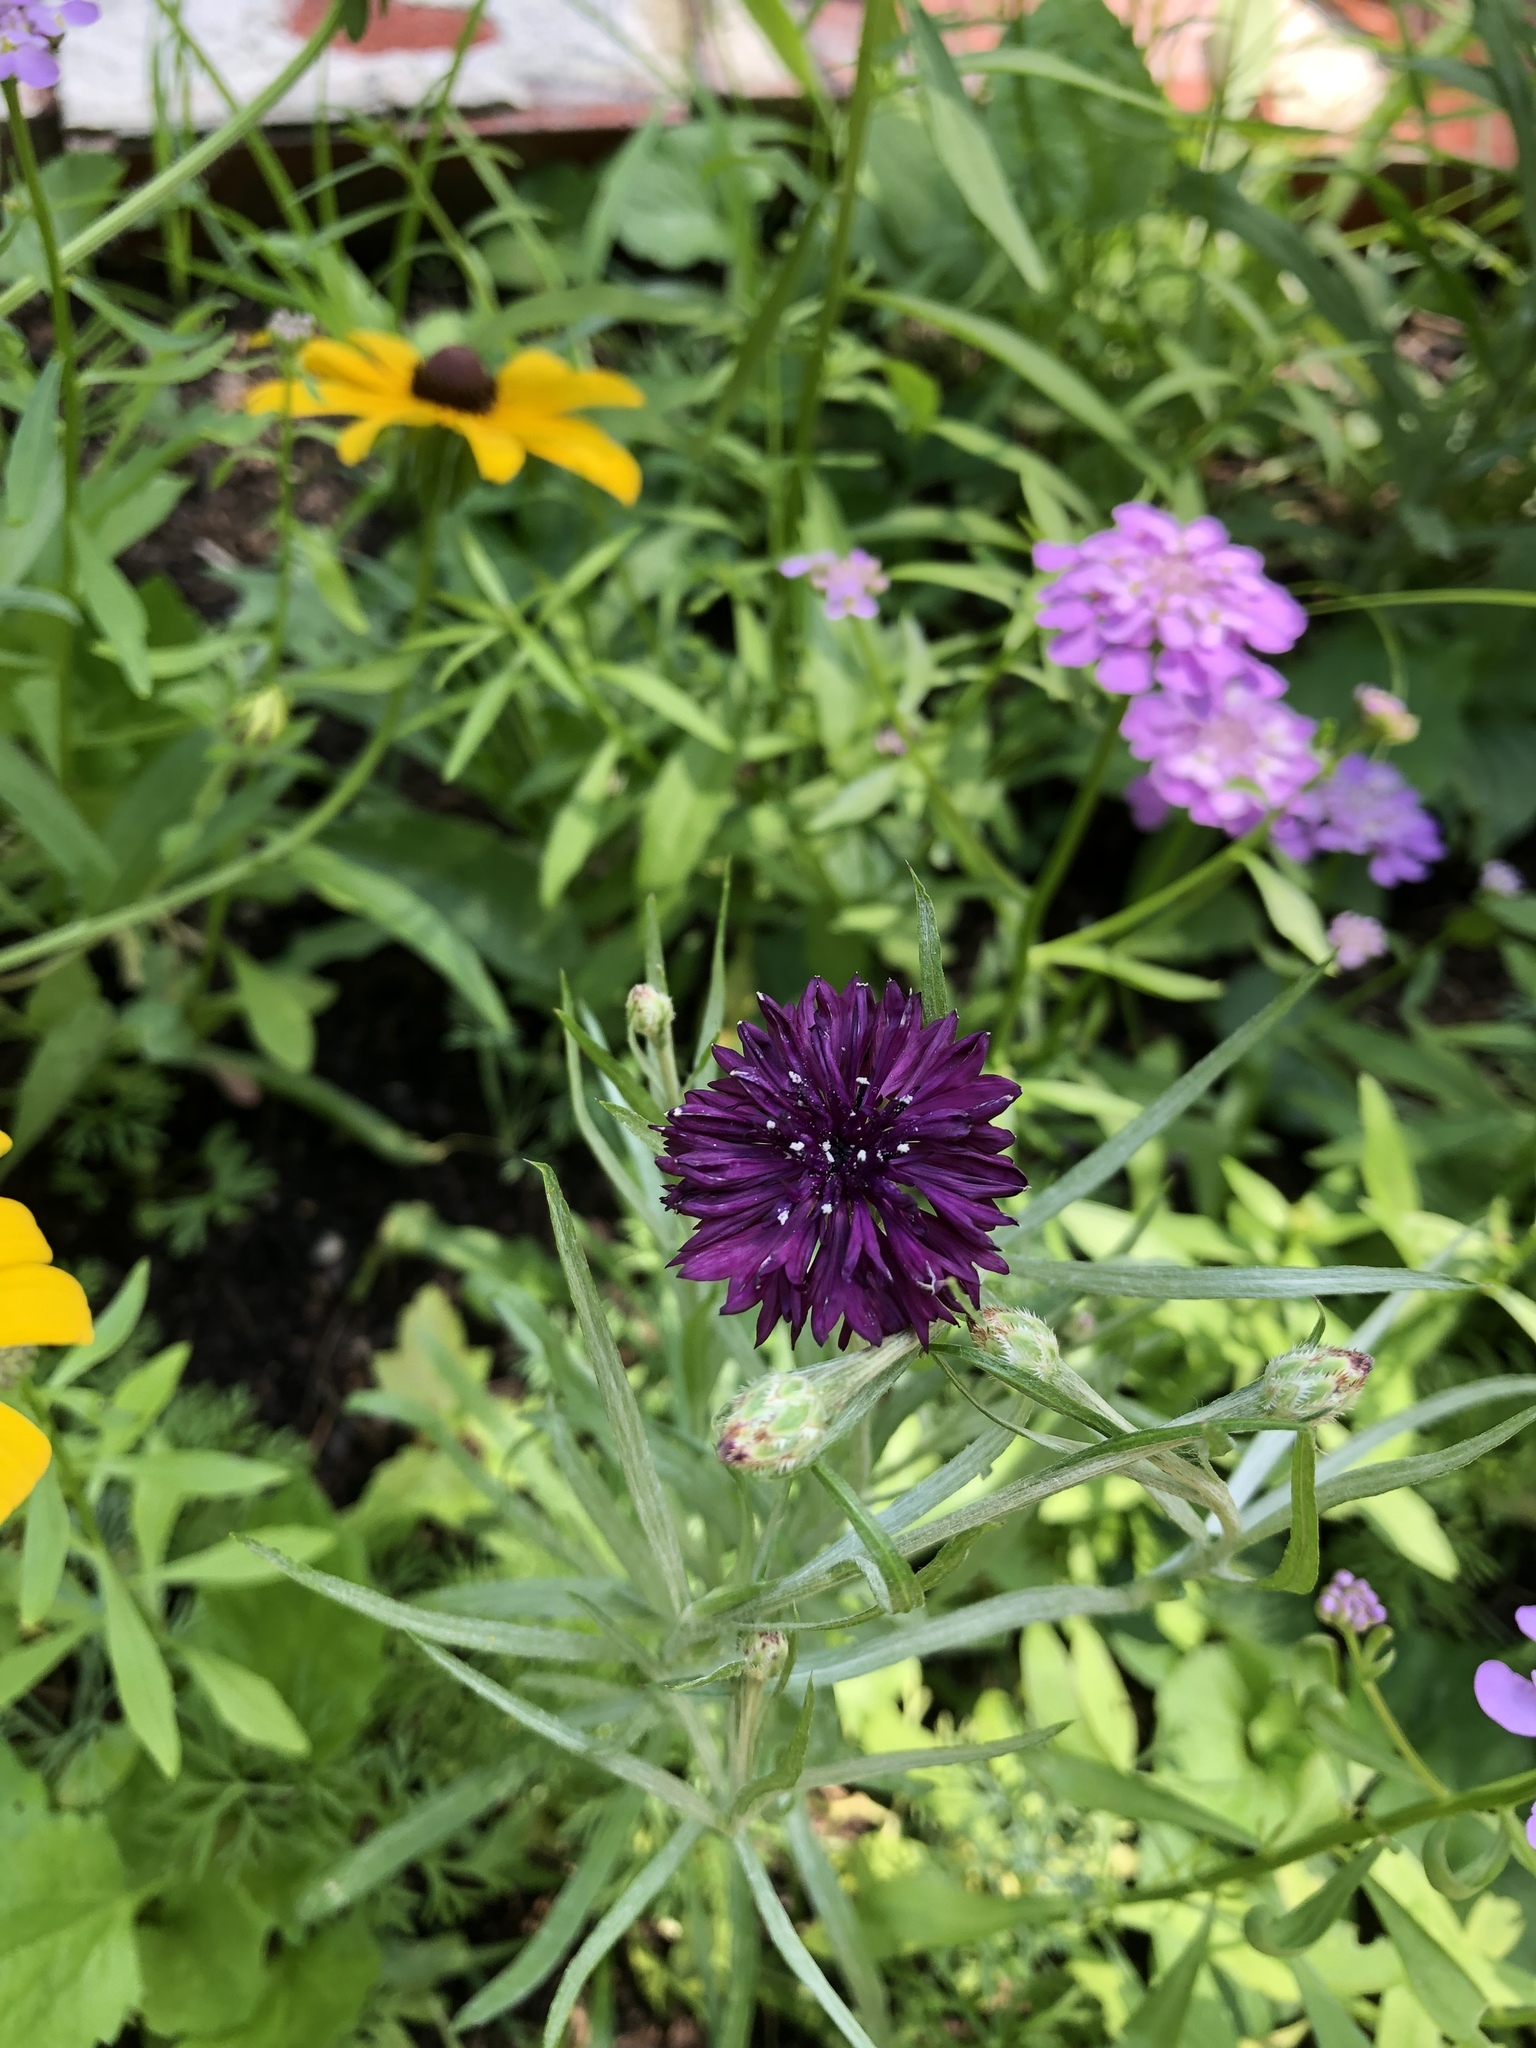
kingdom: Plantae
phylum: Tracheophyta
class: Magnoliopsida
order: Asterales
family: Asteraceae
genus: Centaurea
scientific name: Centaurea cyanus
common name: Cornflower
